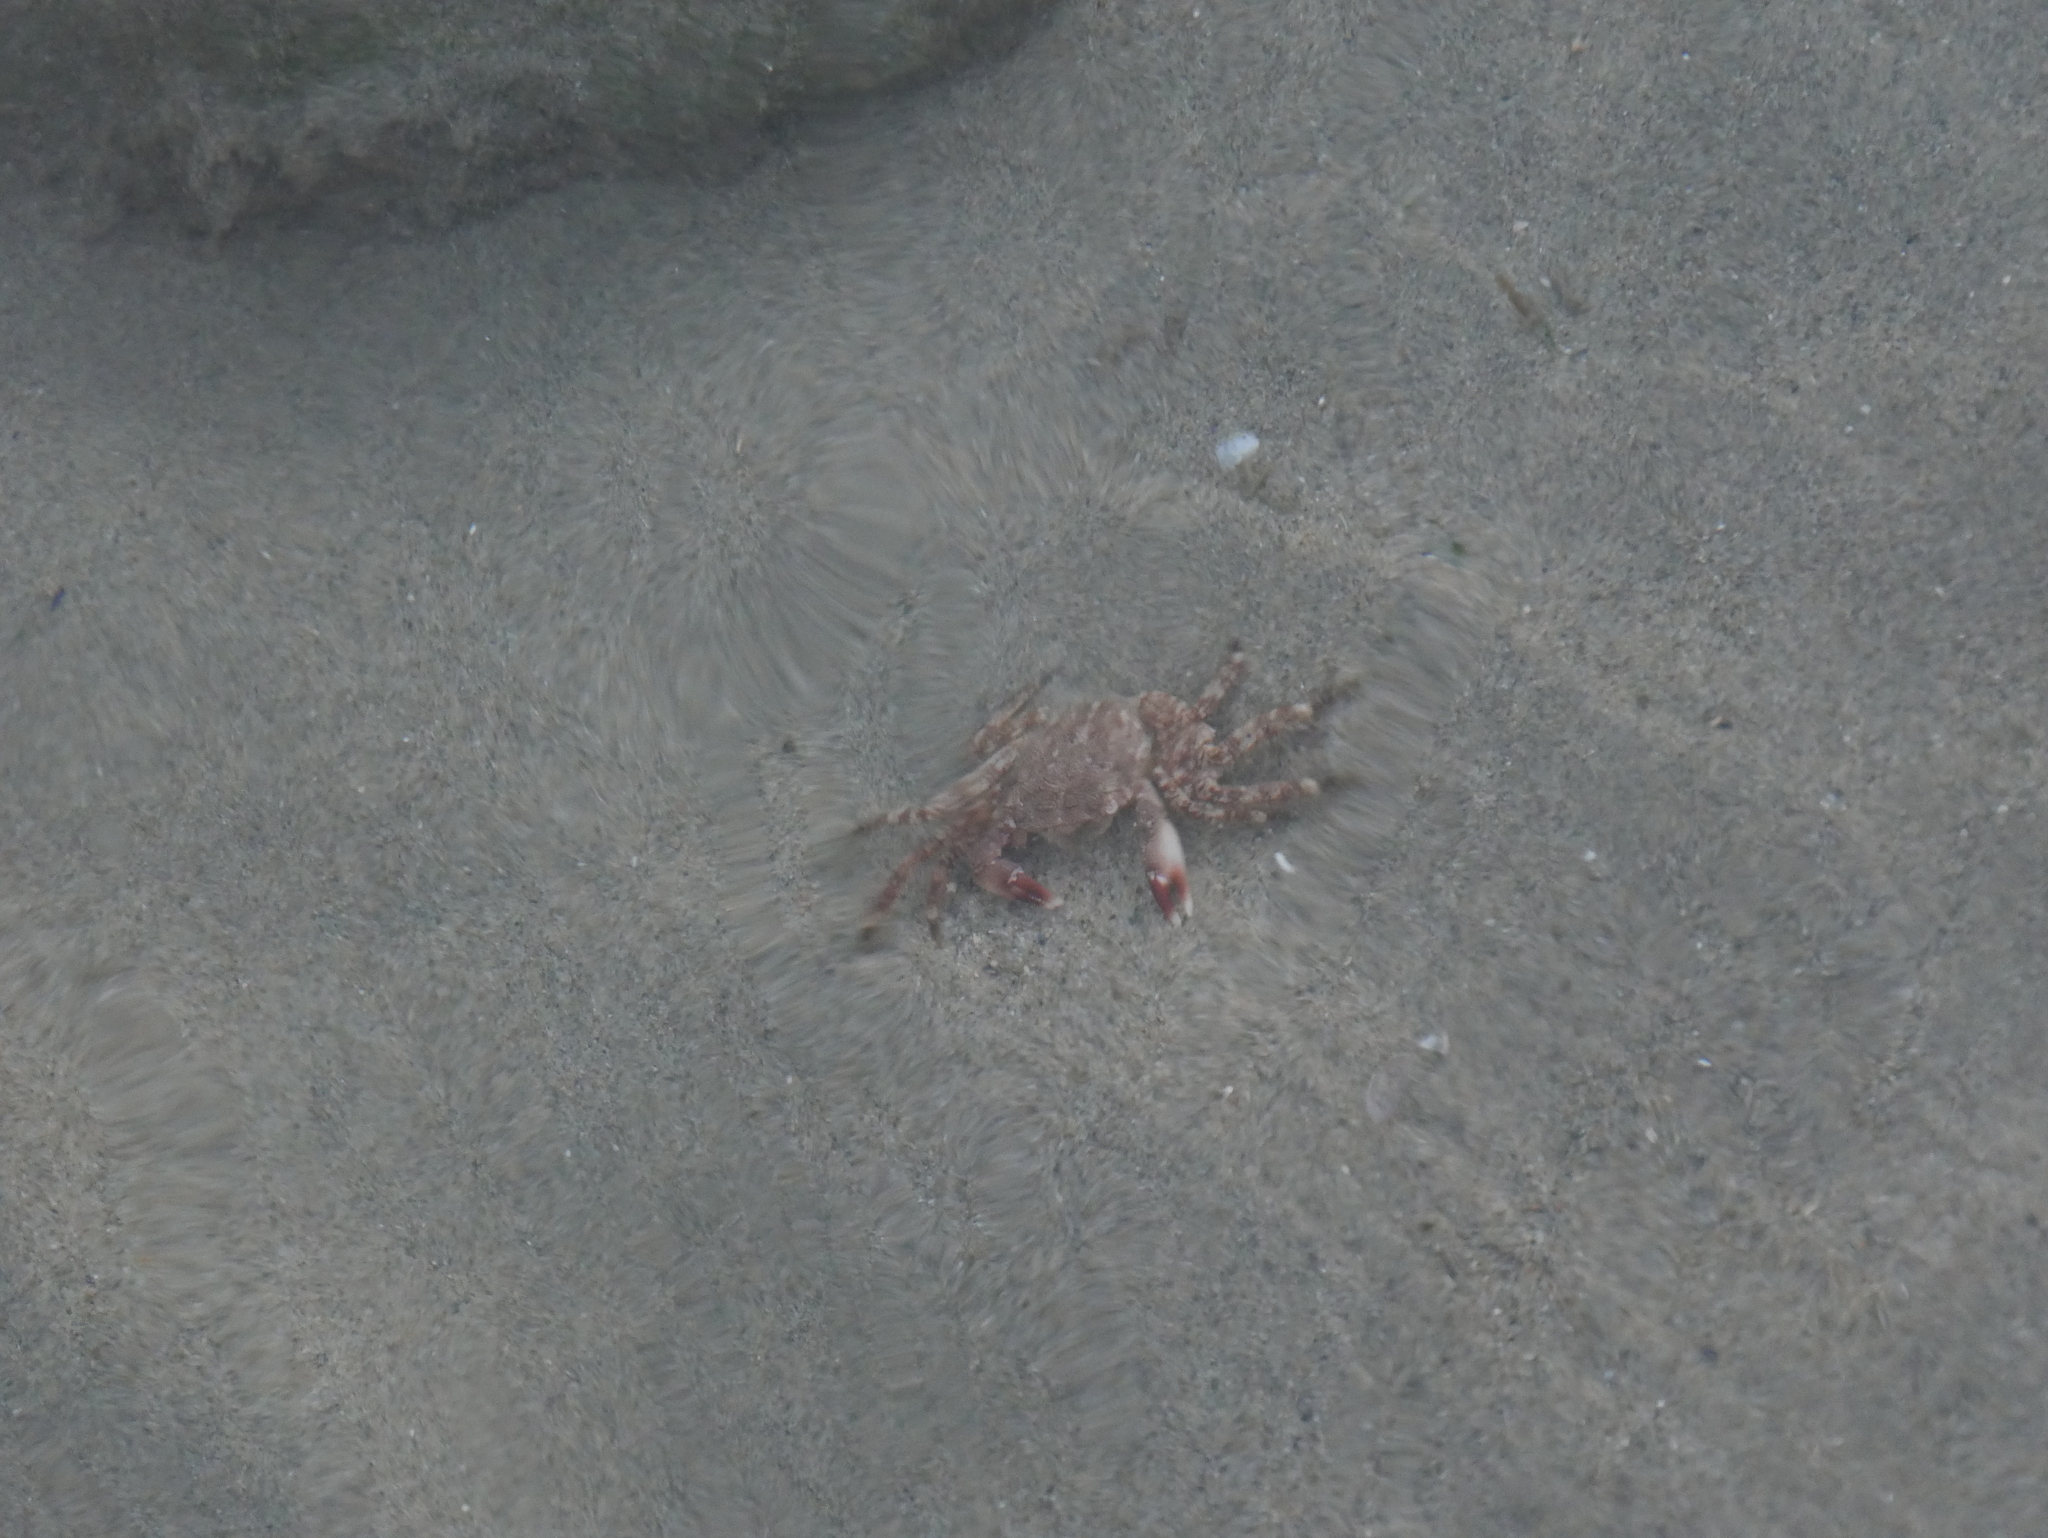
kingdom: Animalia
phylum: Arthropoda
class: Malacostraca
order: Decapoda
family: Grapsidae
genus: Pachygrapsus
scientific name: Pachygrapsus marmoratus
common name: Marbled rock crab
